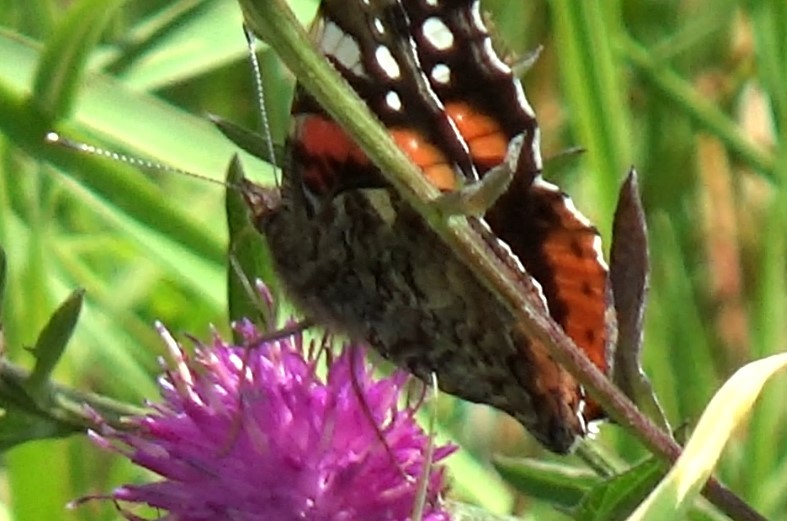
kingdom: Animalia
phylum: Arthropoda
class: Insecta
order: Lepidoptera
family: Nymphalidae
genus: Vanessa
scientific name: Vanessa atalanta
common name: Red admiral
